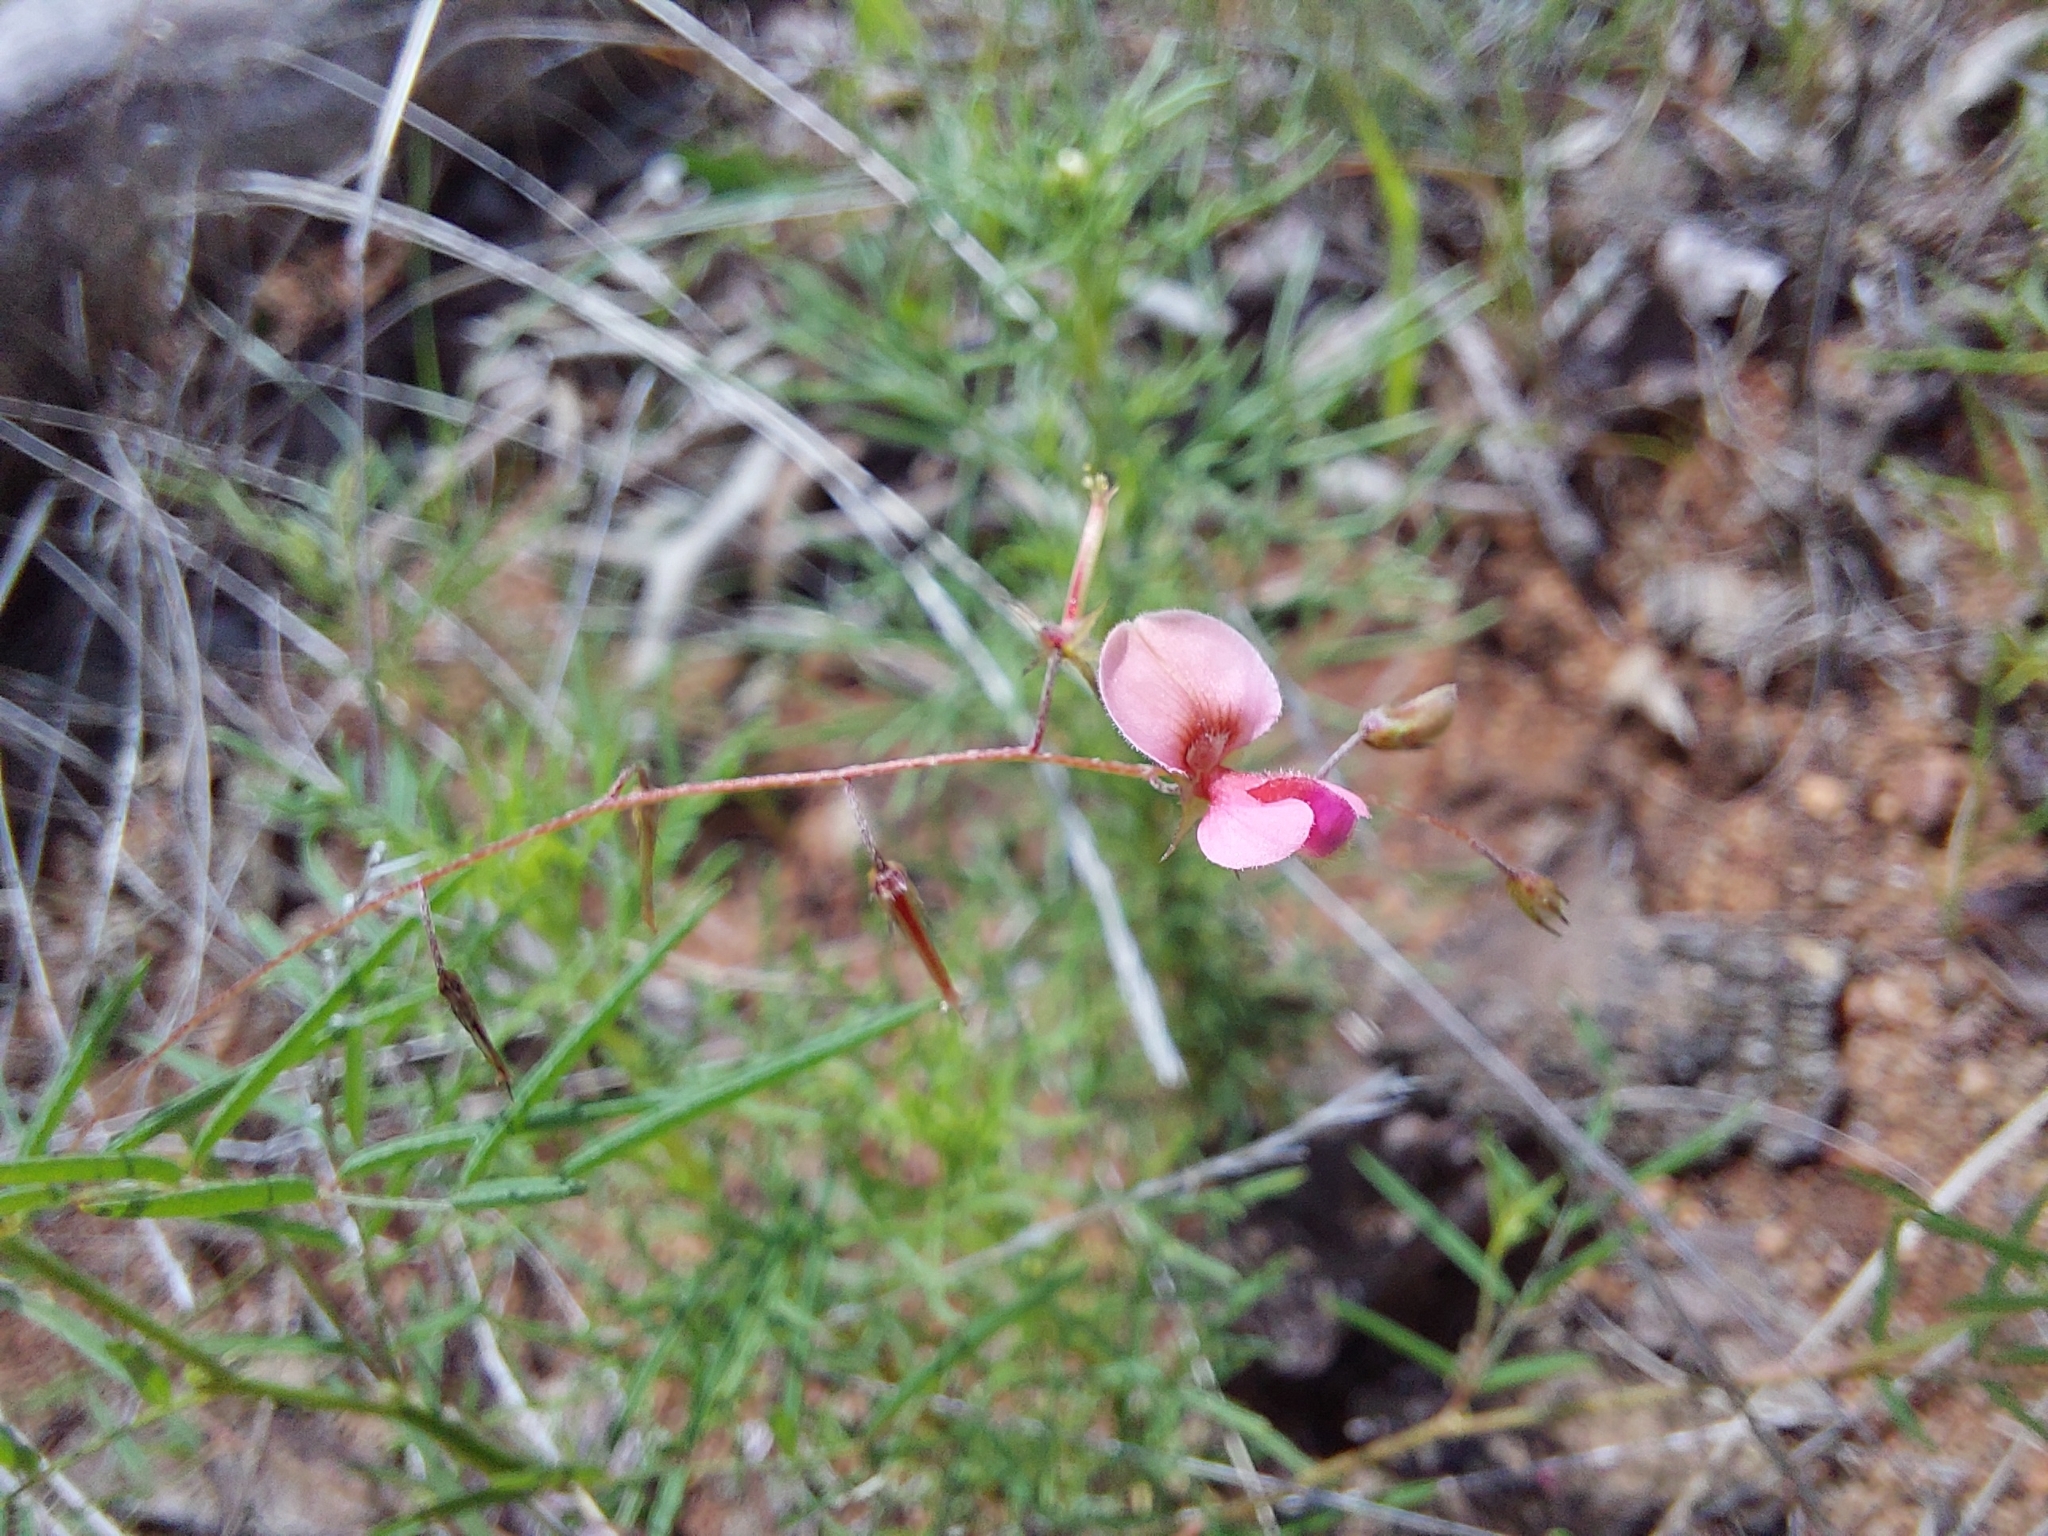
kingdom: Plantae
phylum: Tracheophyta
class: Magnoliopsida
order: Fabales
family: Fabaceae
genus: Indigofera
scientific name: Indigofera filipes
